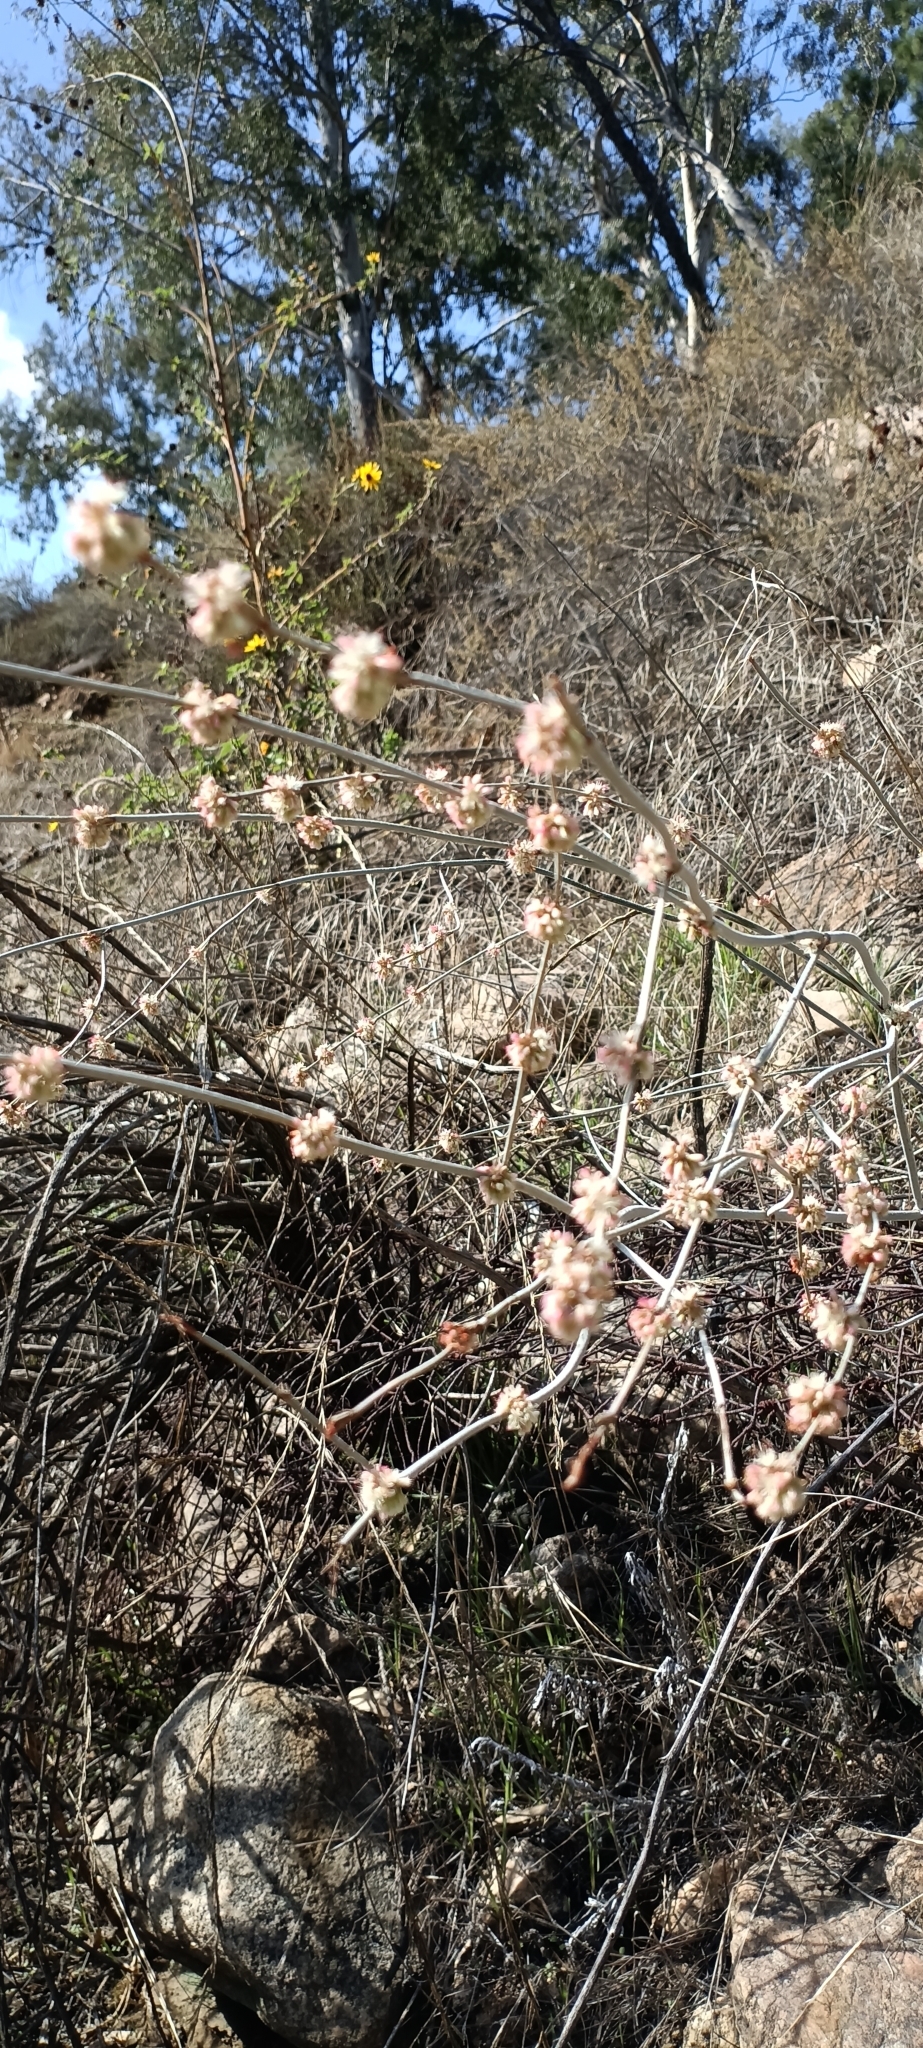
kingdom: Plantae
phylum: Tracheophyta
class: Magnoliopsida
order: Caryophyllales
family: Polygonaceae
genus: Eriogonum
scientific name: Eriogonum elongatum
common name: Long-stem wild buckwheat
